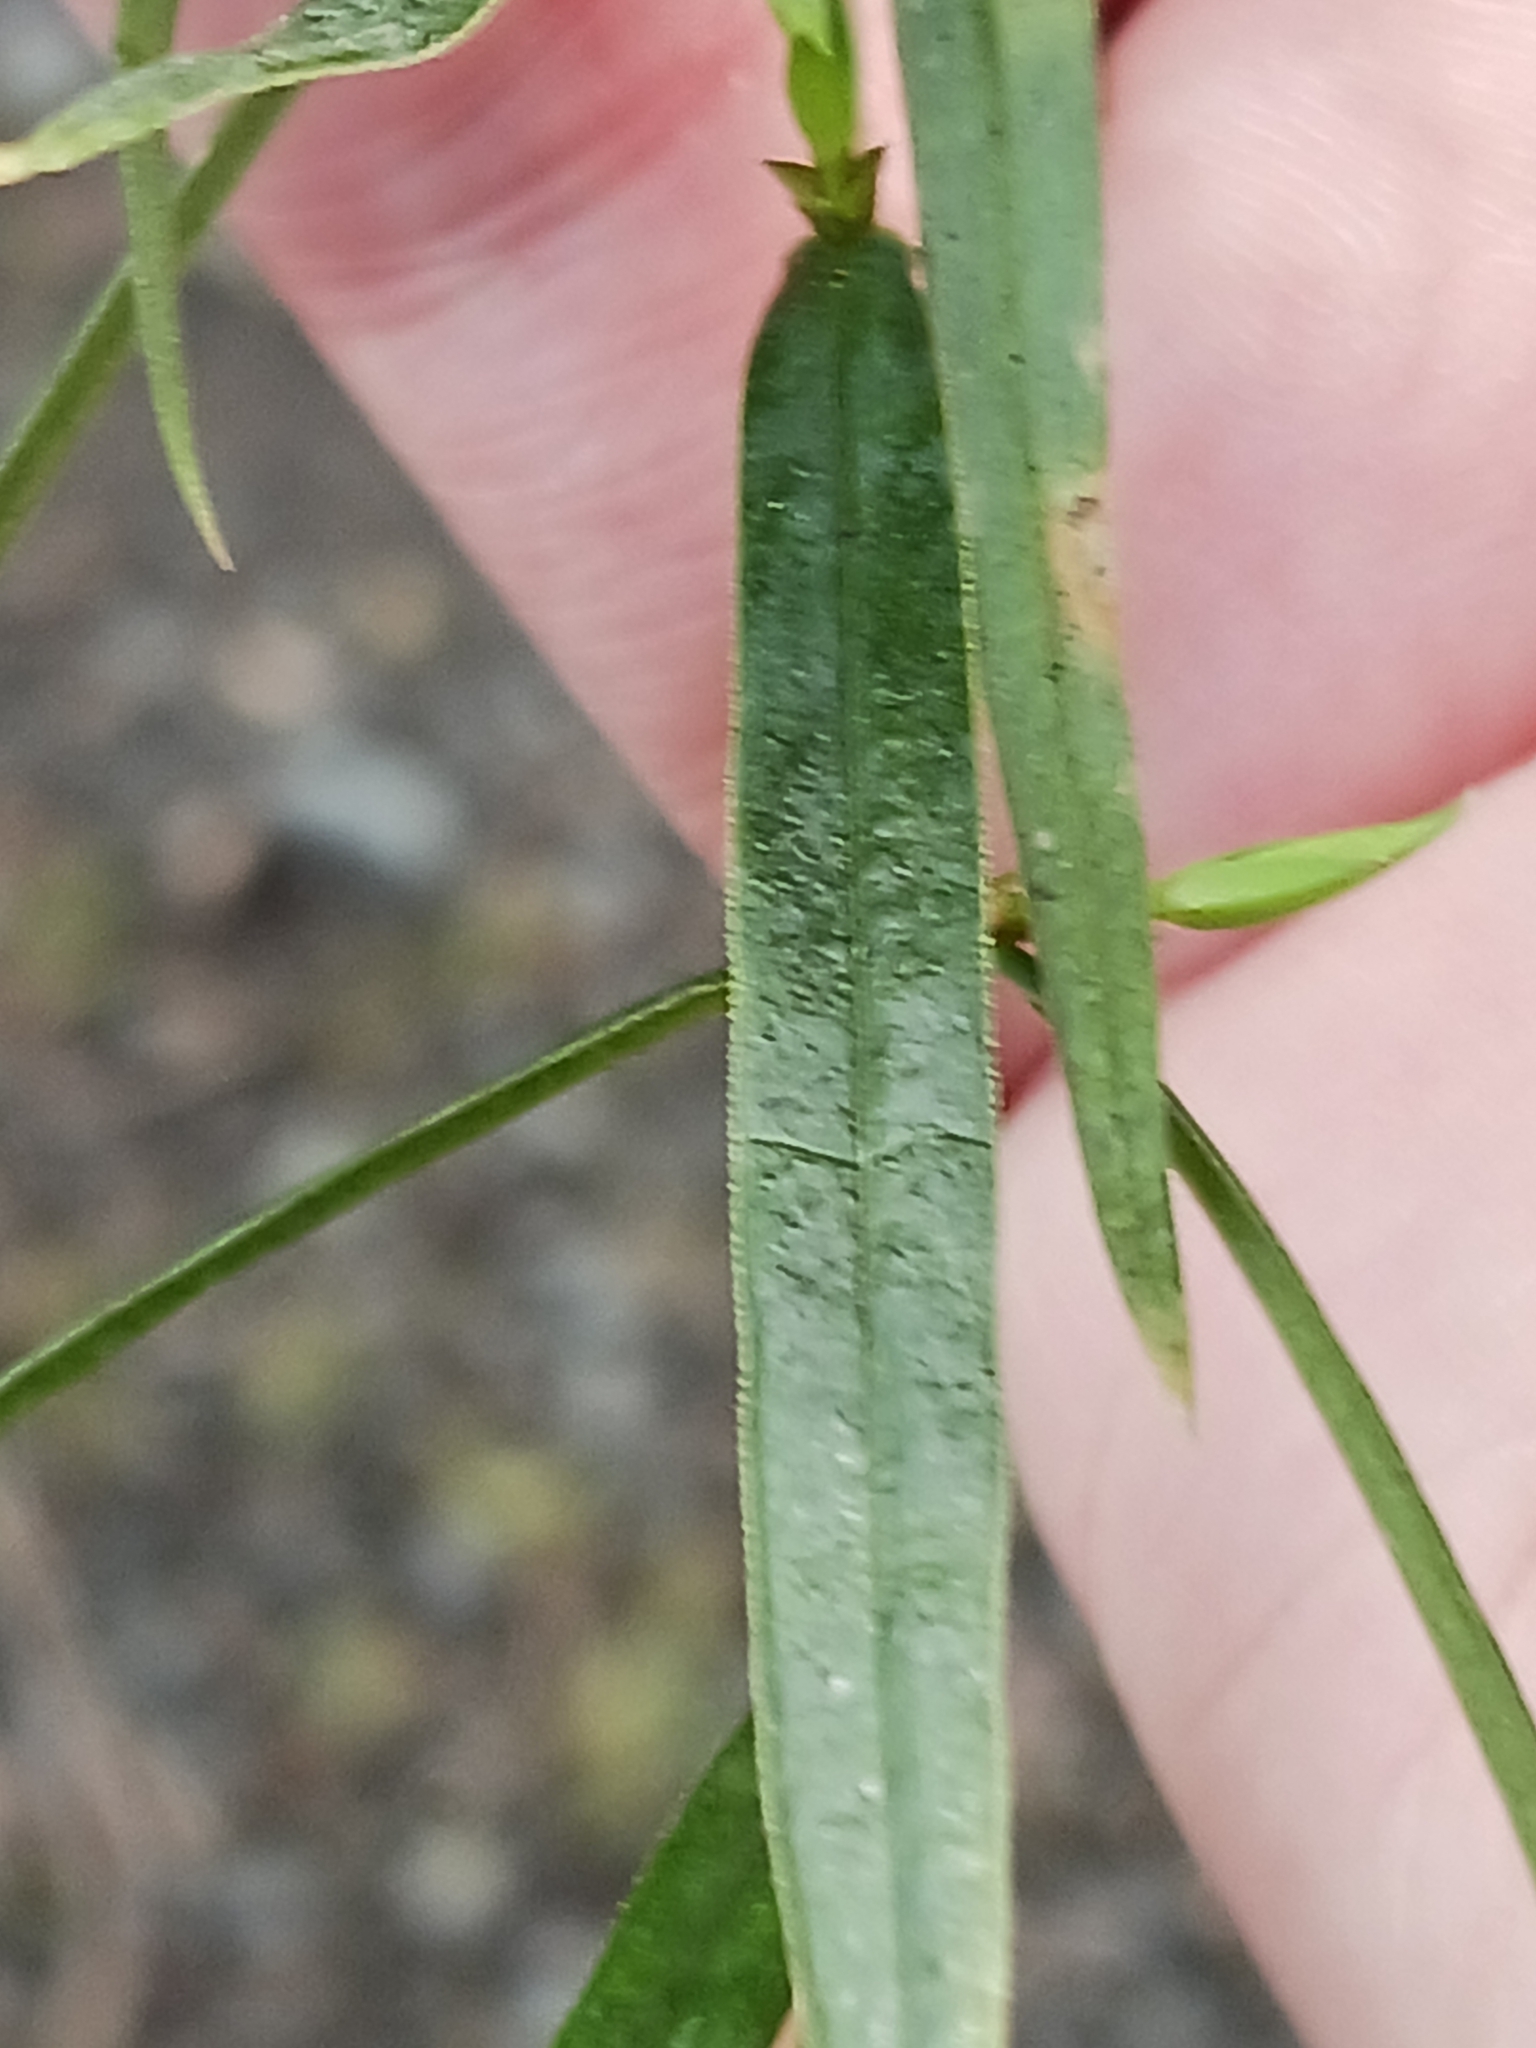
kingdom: Plantae
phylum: Tracheophyta
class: Magnoliopsida
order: Caryophyllales
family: Caryophyllaceae
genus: Rabelera
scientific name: Rabelera holostea
